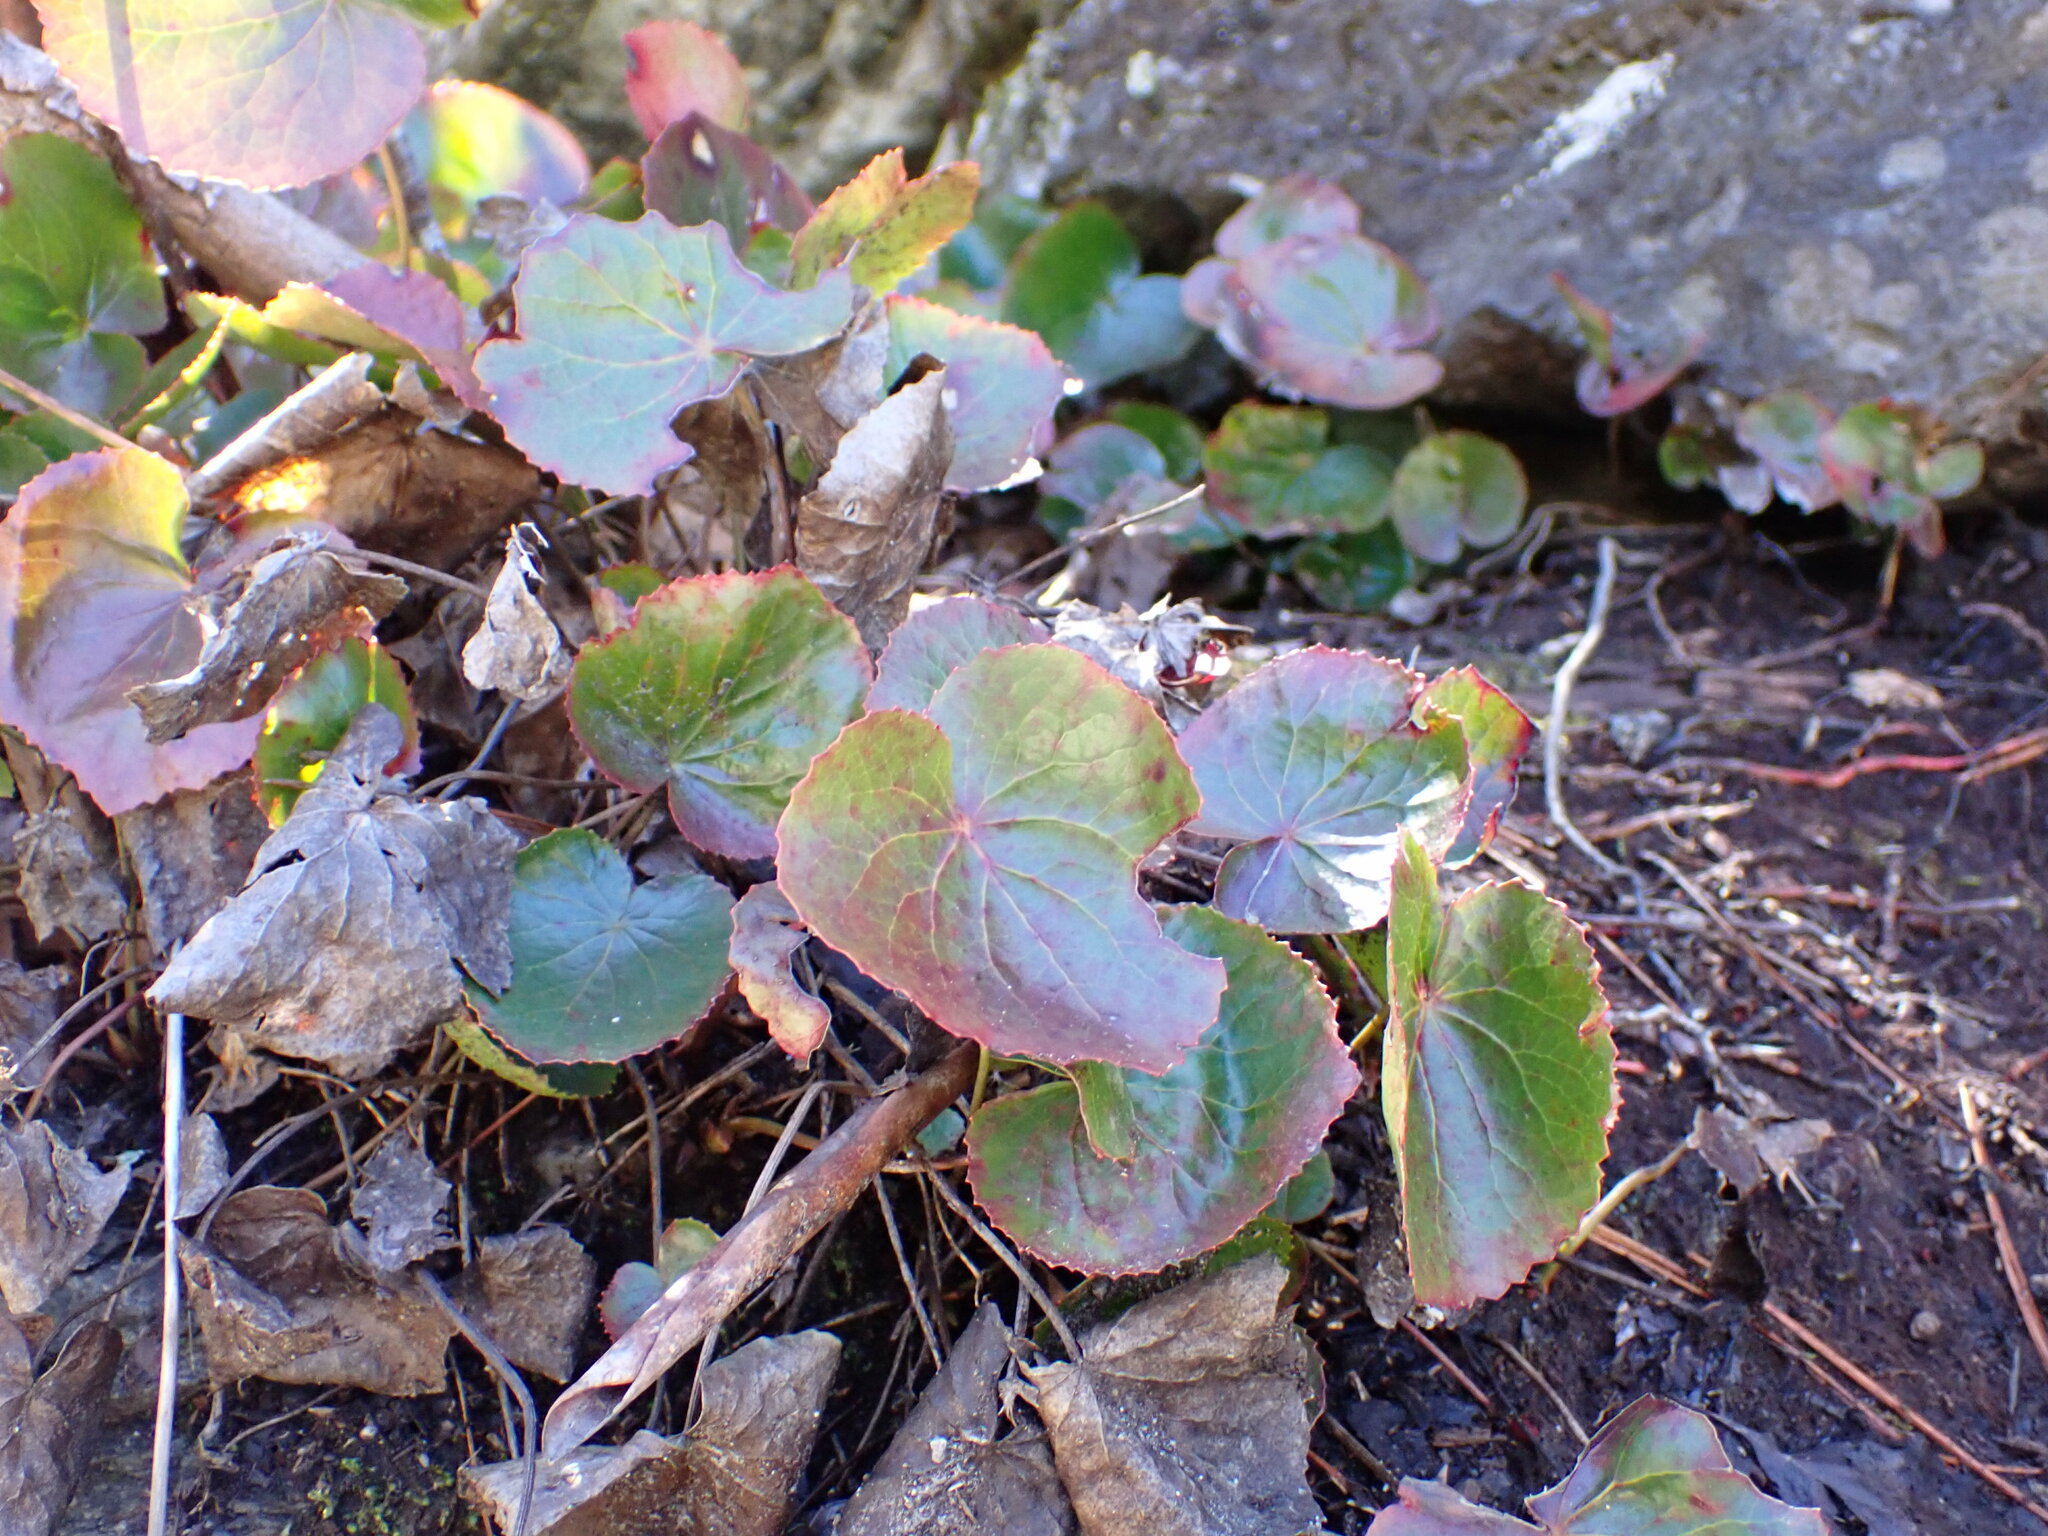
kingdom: Plantae
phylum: Tracheophyta
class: Magnoliopsida
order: Ericales
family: Diapensiaceae
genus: Galax
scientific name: Galax urceolata
